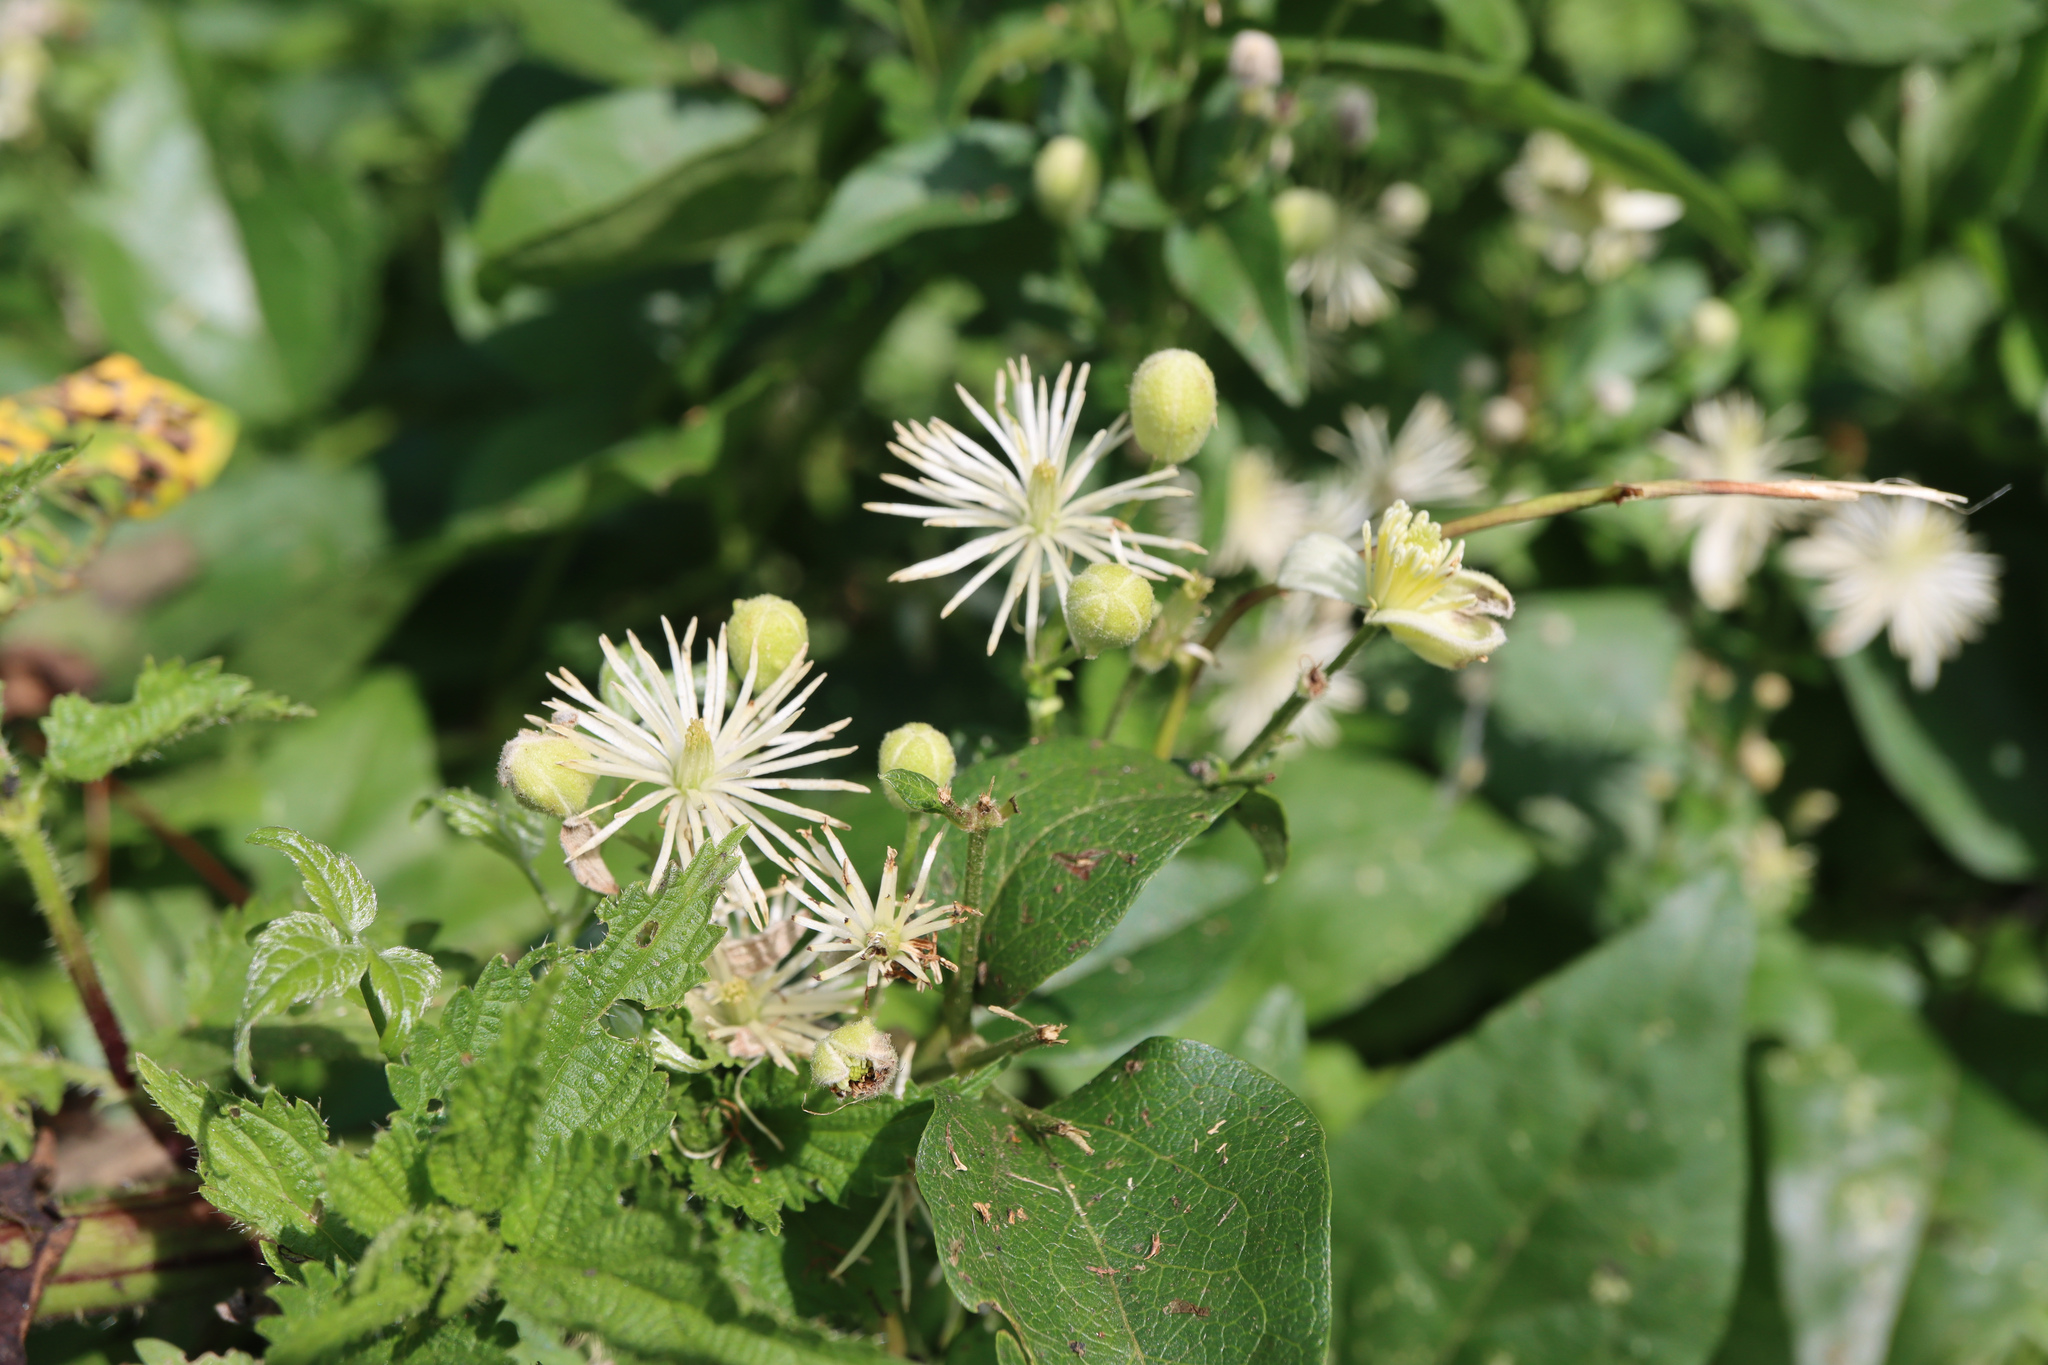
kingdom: Plantae
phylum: Tracheophyta
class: Magnoliopsida
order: Ranunculales
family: Ranunculaceae
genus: Clematis
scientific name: Clematis vitalba
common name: Evergreen clematis
